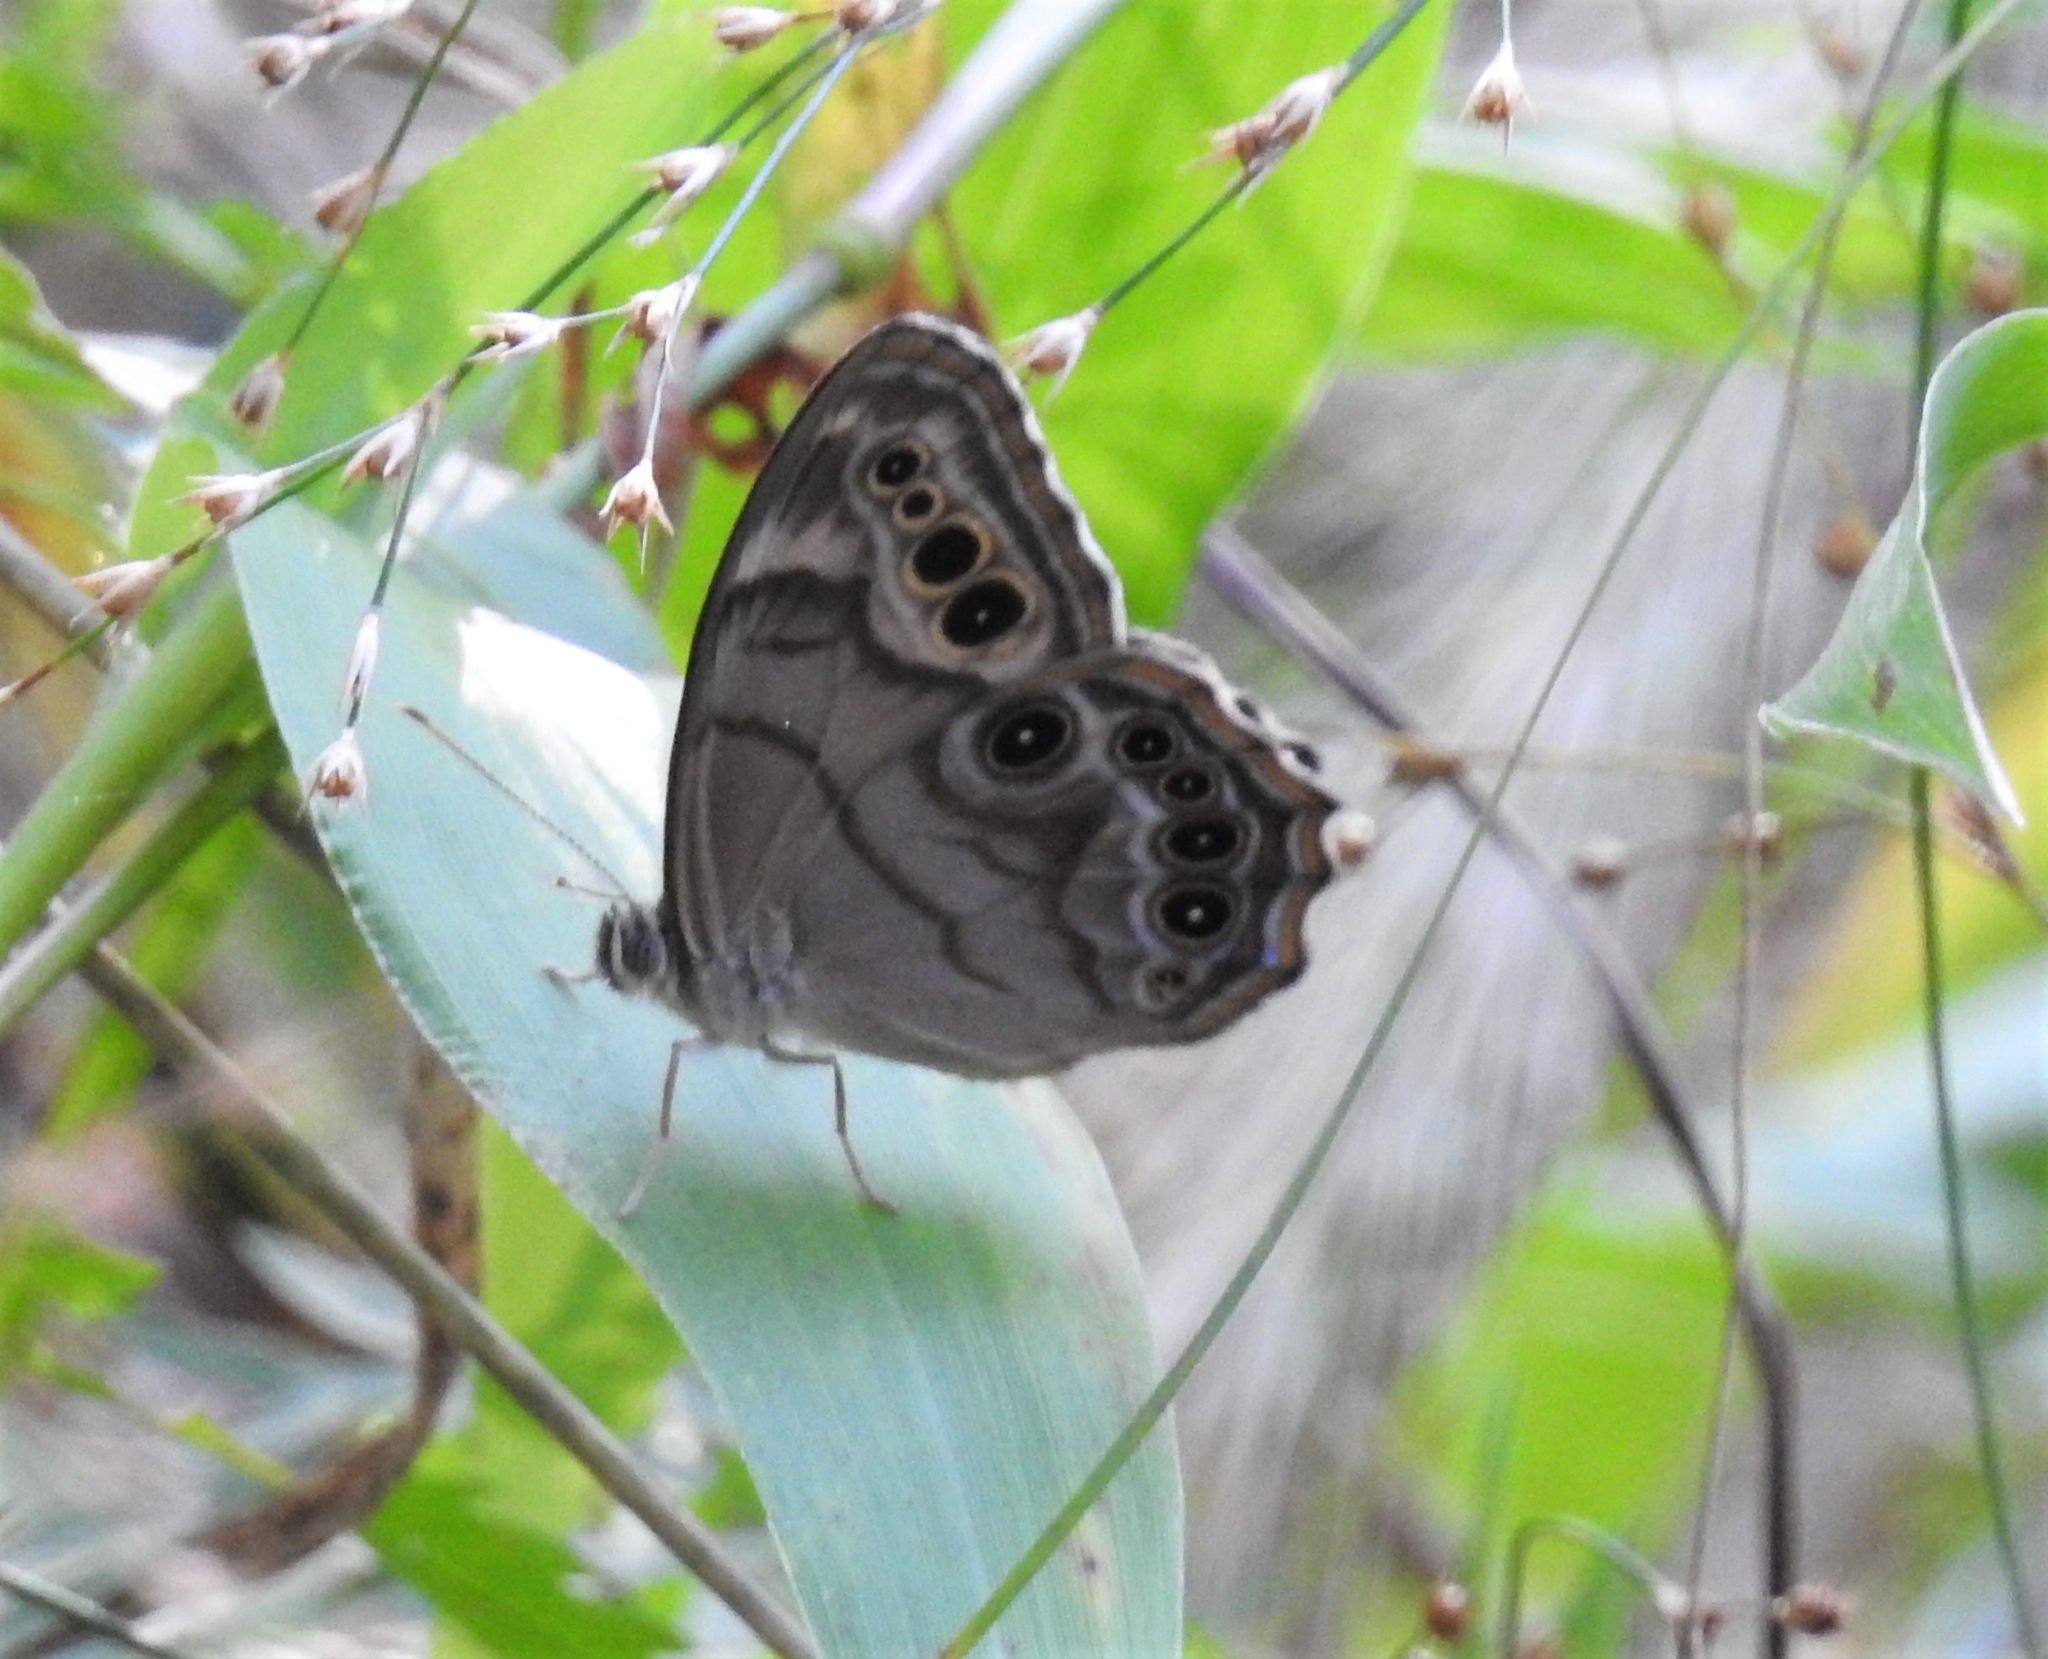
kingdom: Animalia
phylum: Arthropoda
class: Insecta
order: Lepidoptera
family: Nymphalidae
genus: Lethe
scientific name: Lethe anthedon
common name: Northern pearly-eye
